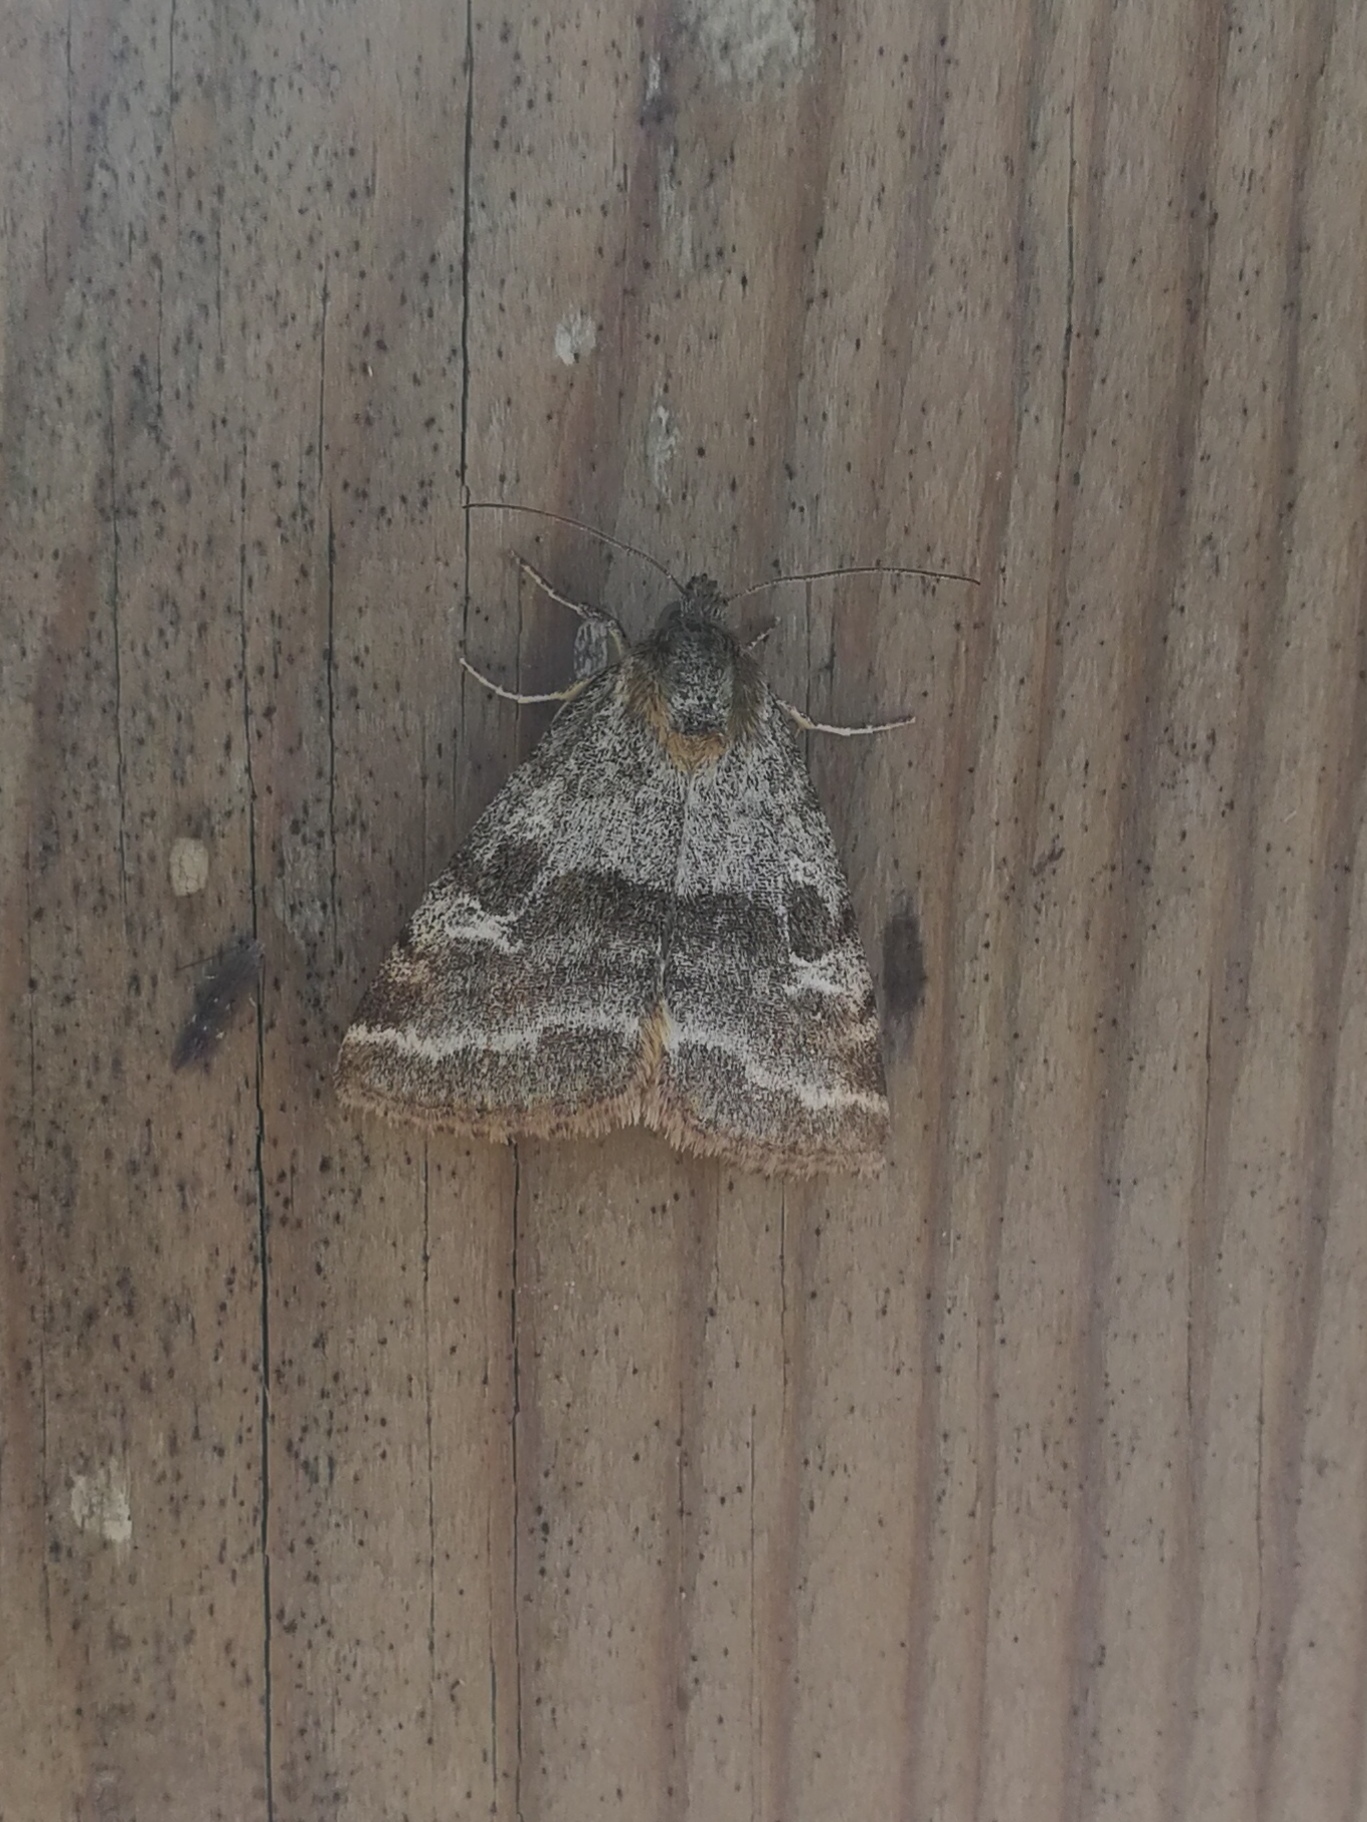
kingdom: Animalia
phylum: Arthropoda
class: Insecta
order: Lepidoptera
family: Noctuidae
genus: Synthymia
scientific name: Synthymia fixa
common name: Goldwing
